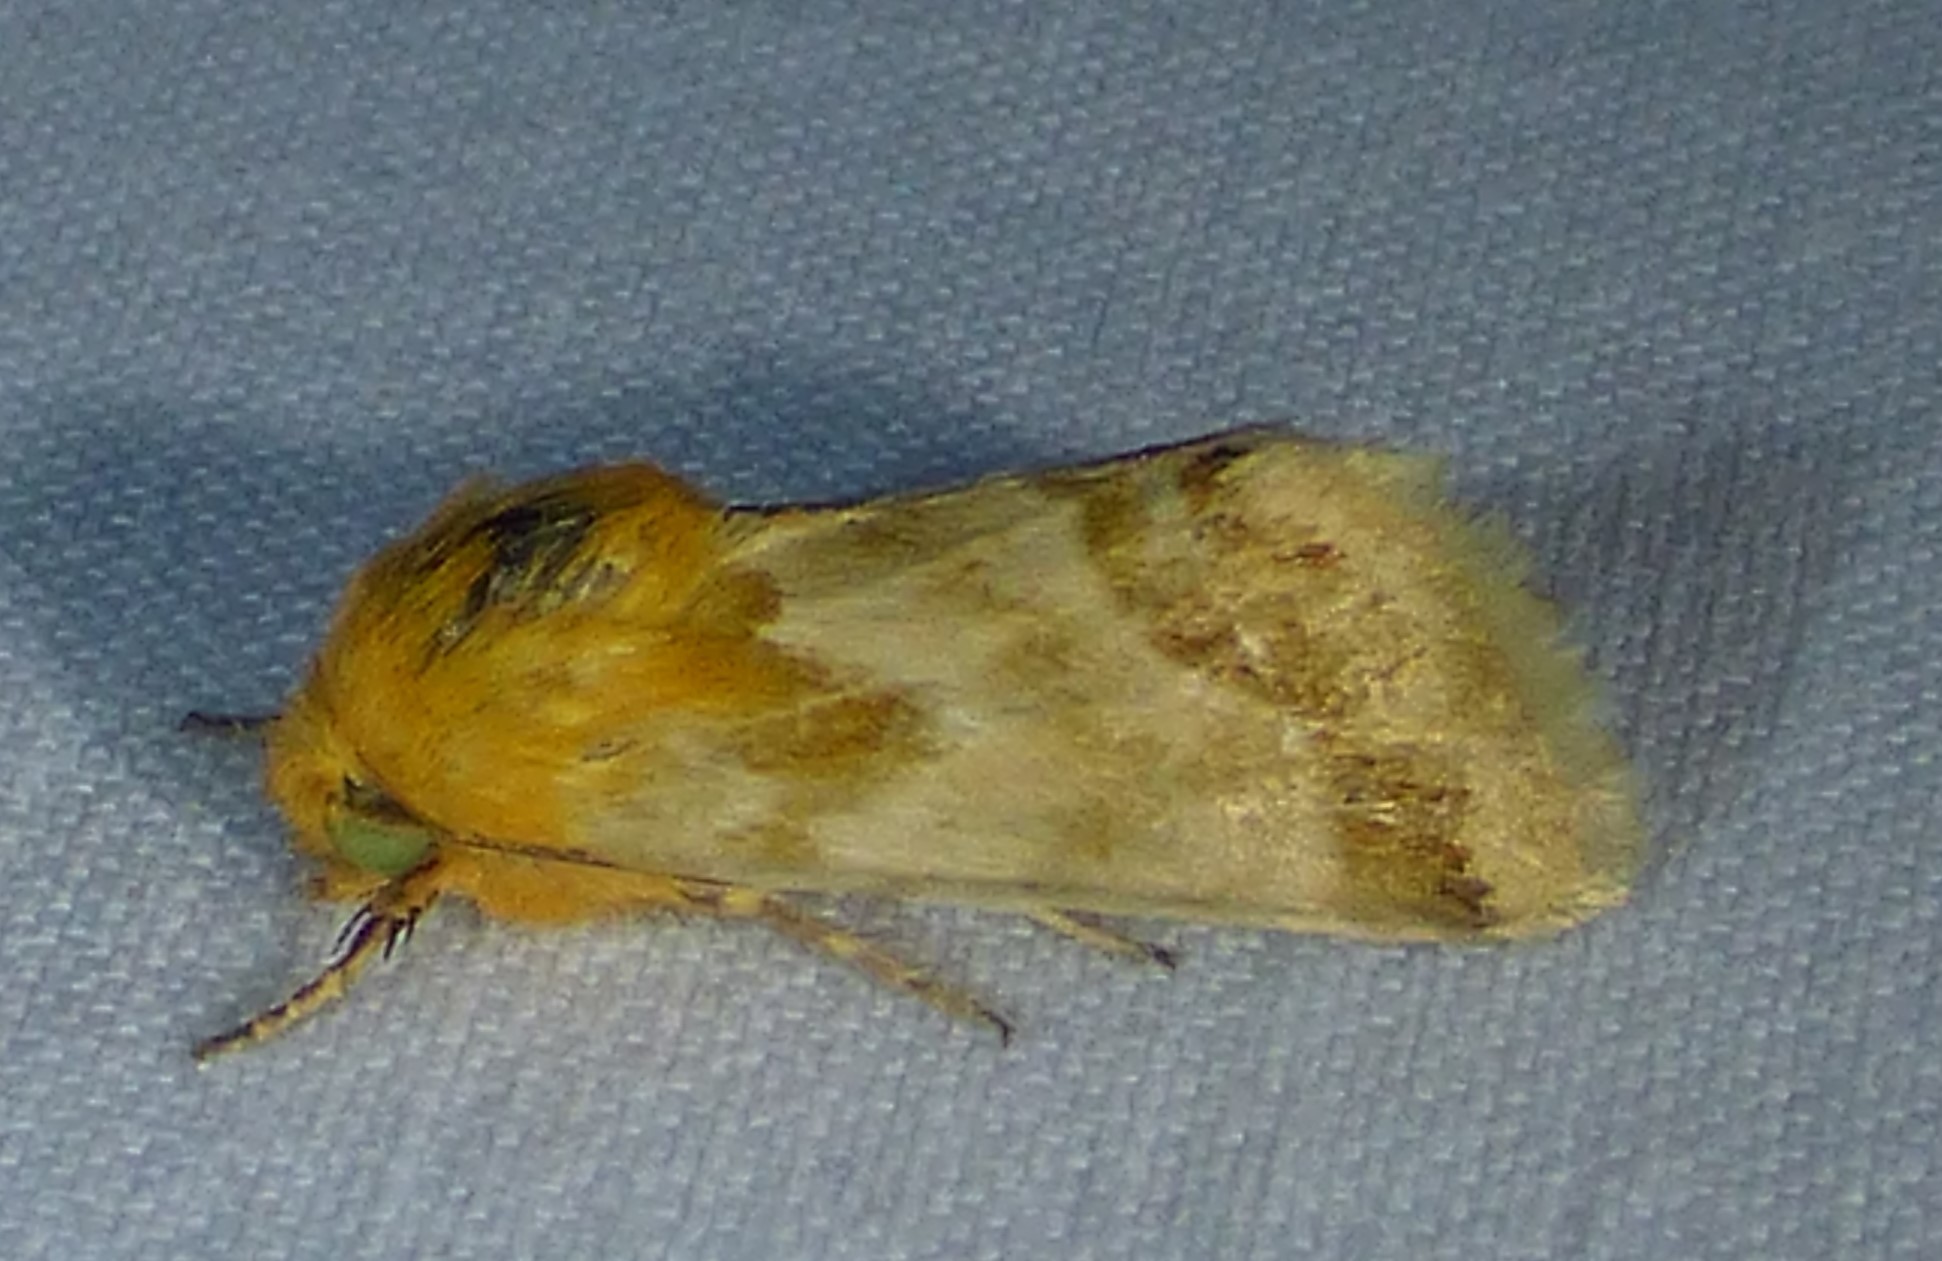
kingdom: Animalia
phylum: Arthropoda
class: Insecta
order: Lepidoptera
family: Noctuidae
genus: Schinia
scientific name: Schinia siren
